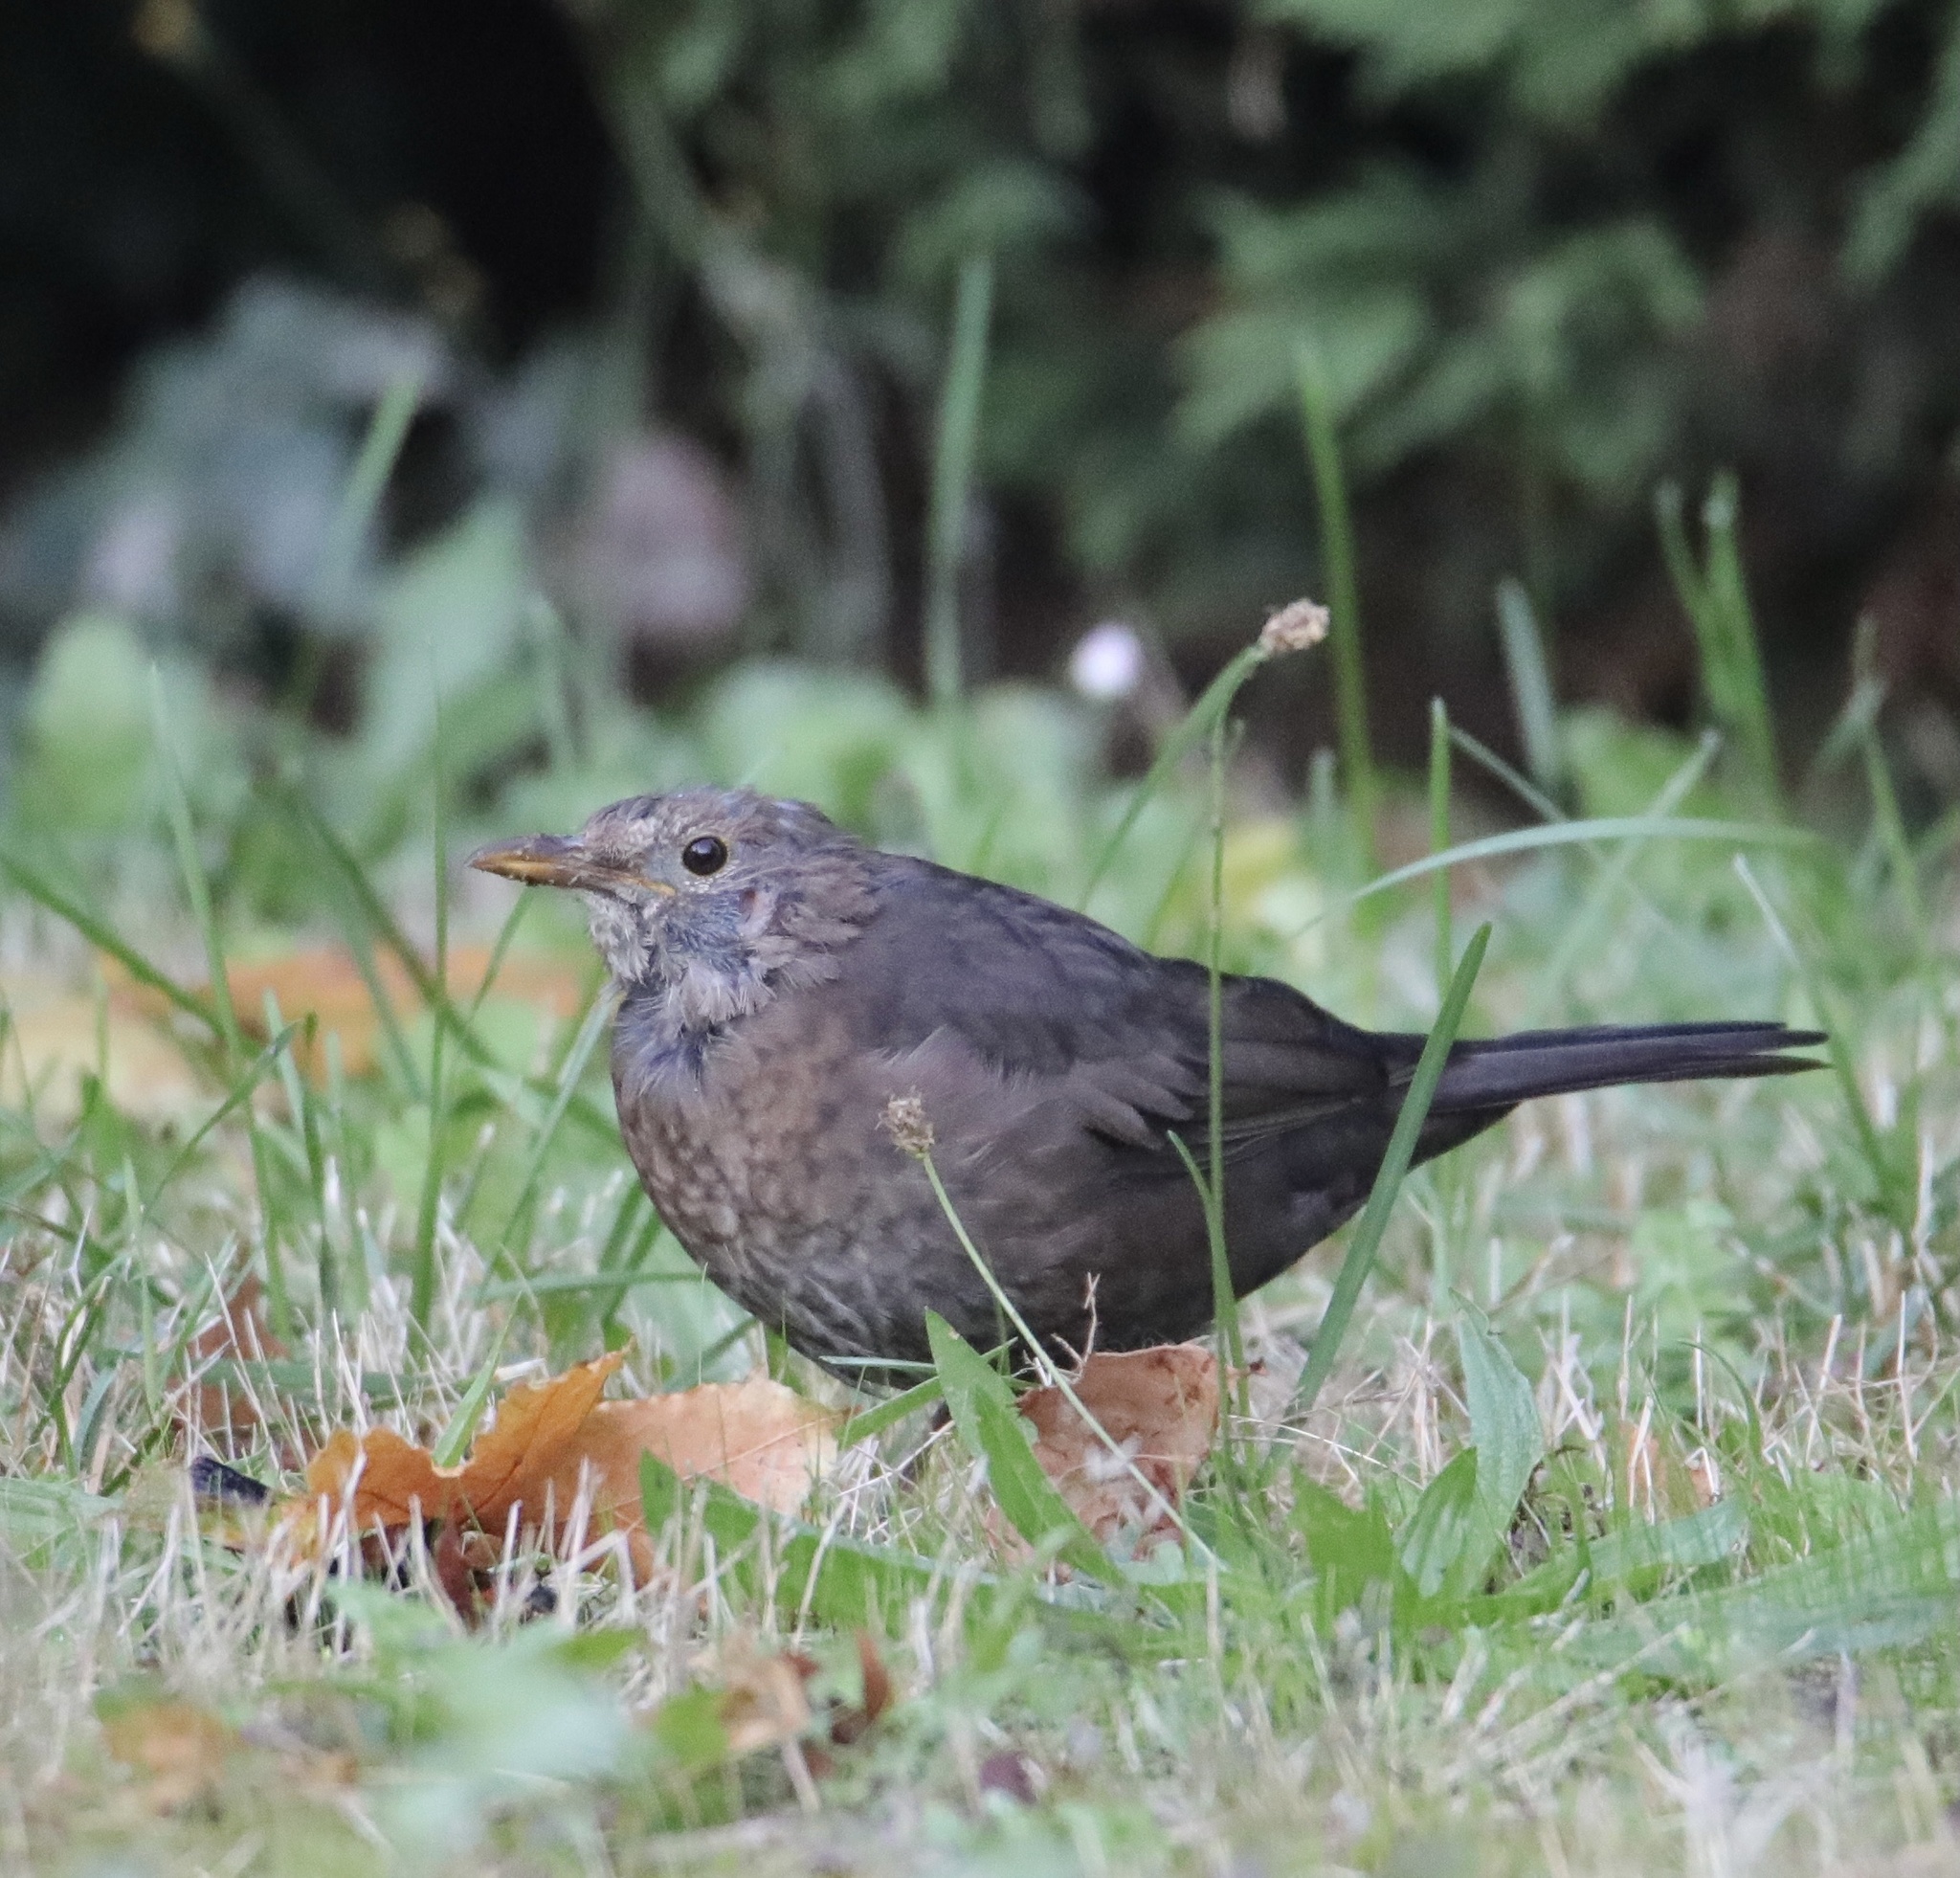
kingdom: Animalia
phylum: Chordata
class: Aves
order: Passeriformes
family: Turdidae
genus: Turdus
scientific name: Turdus merula
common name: Common blackbird
